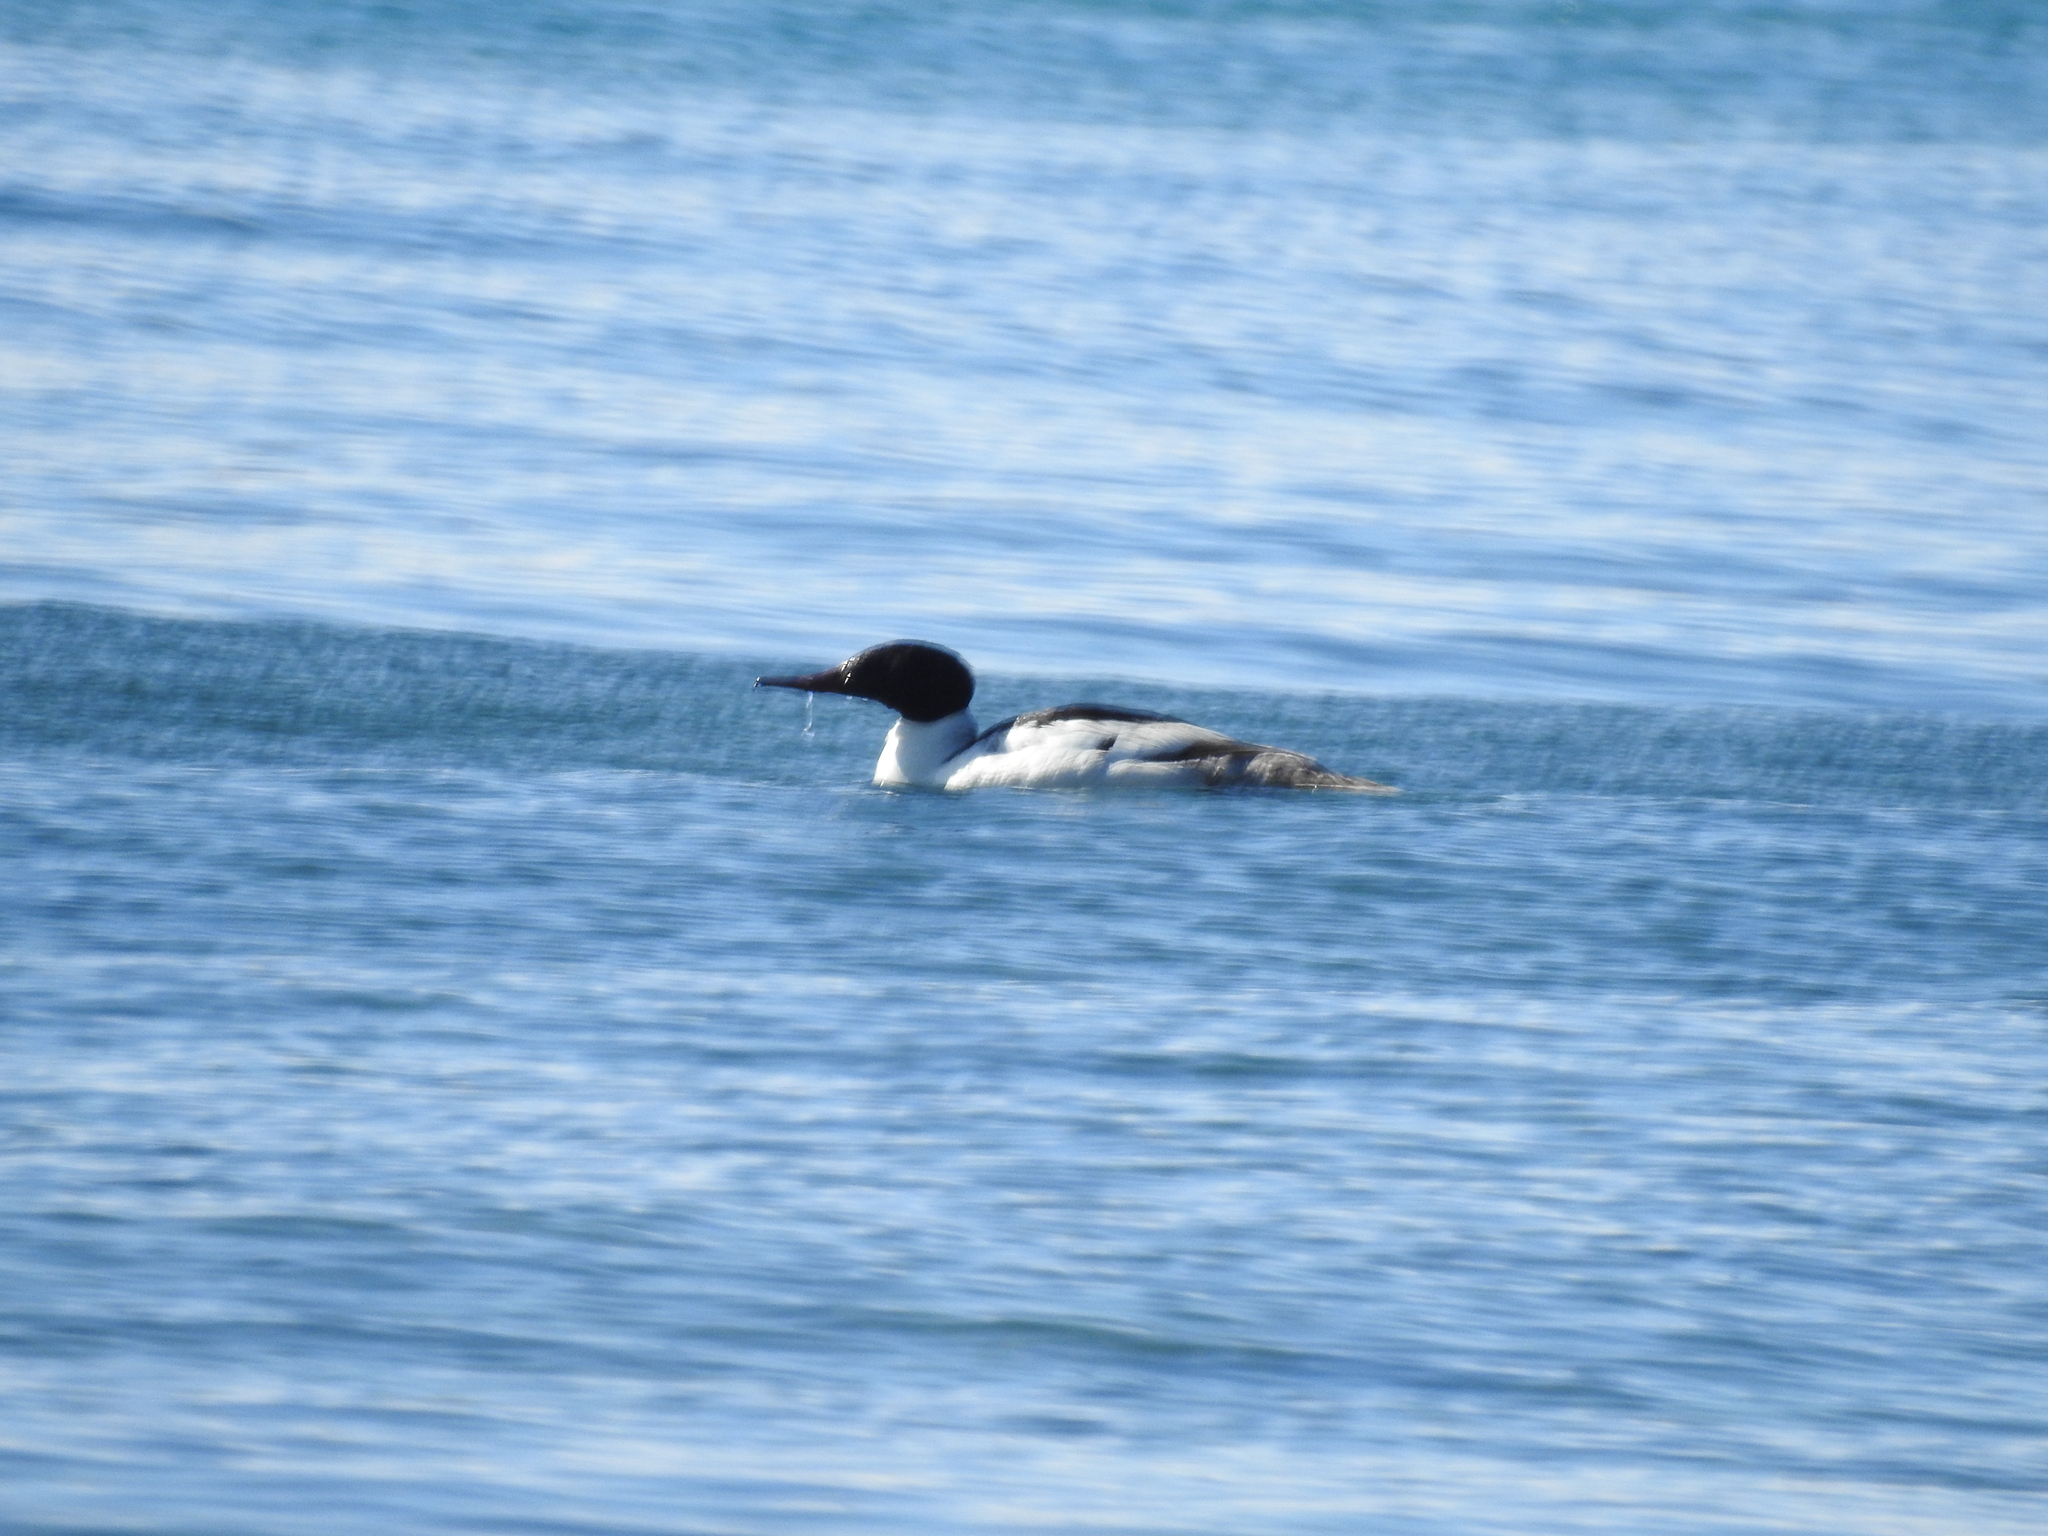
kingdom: Animalia
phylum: Chordata
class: Aves
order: Anseriformes
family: Anatidae
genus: Mergus
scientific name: Mergus merganser
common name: Common merganser
